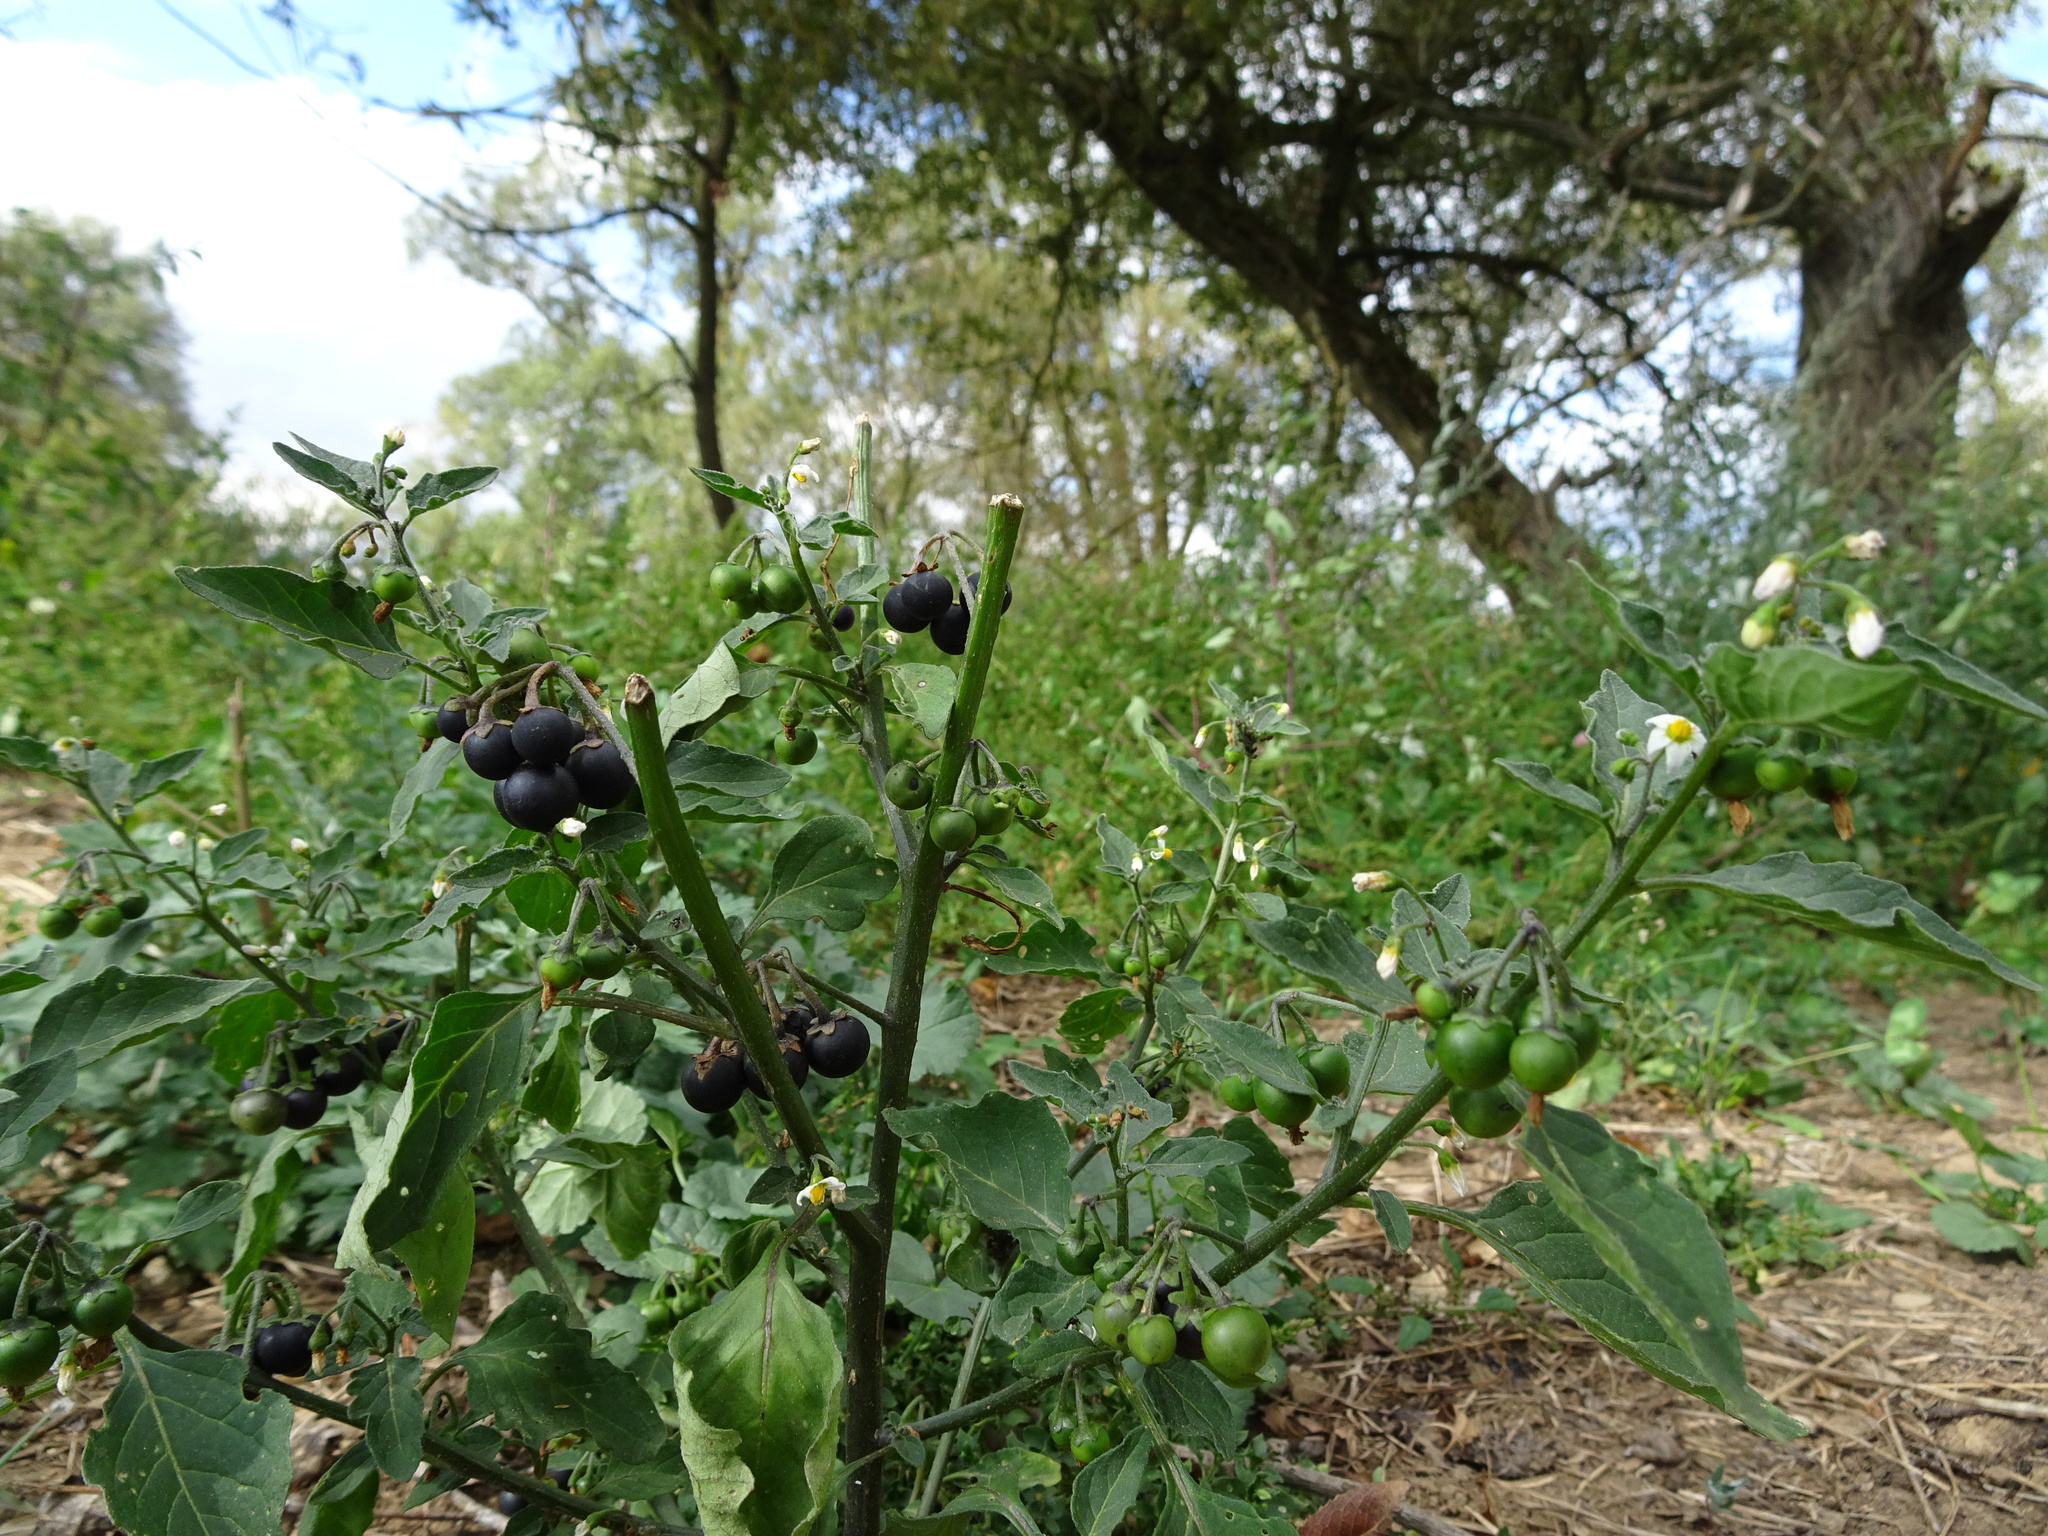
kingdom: Plantae
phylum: Tracheophyta
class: Magnoliopsida
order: Solanales
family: Solanaceae
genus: Solanum
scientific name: Solanum nigrum
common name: Black nightshade
